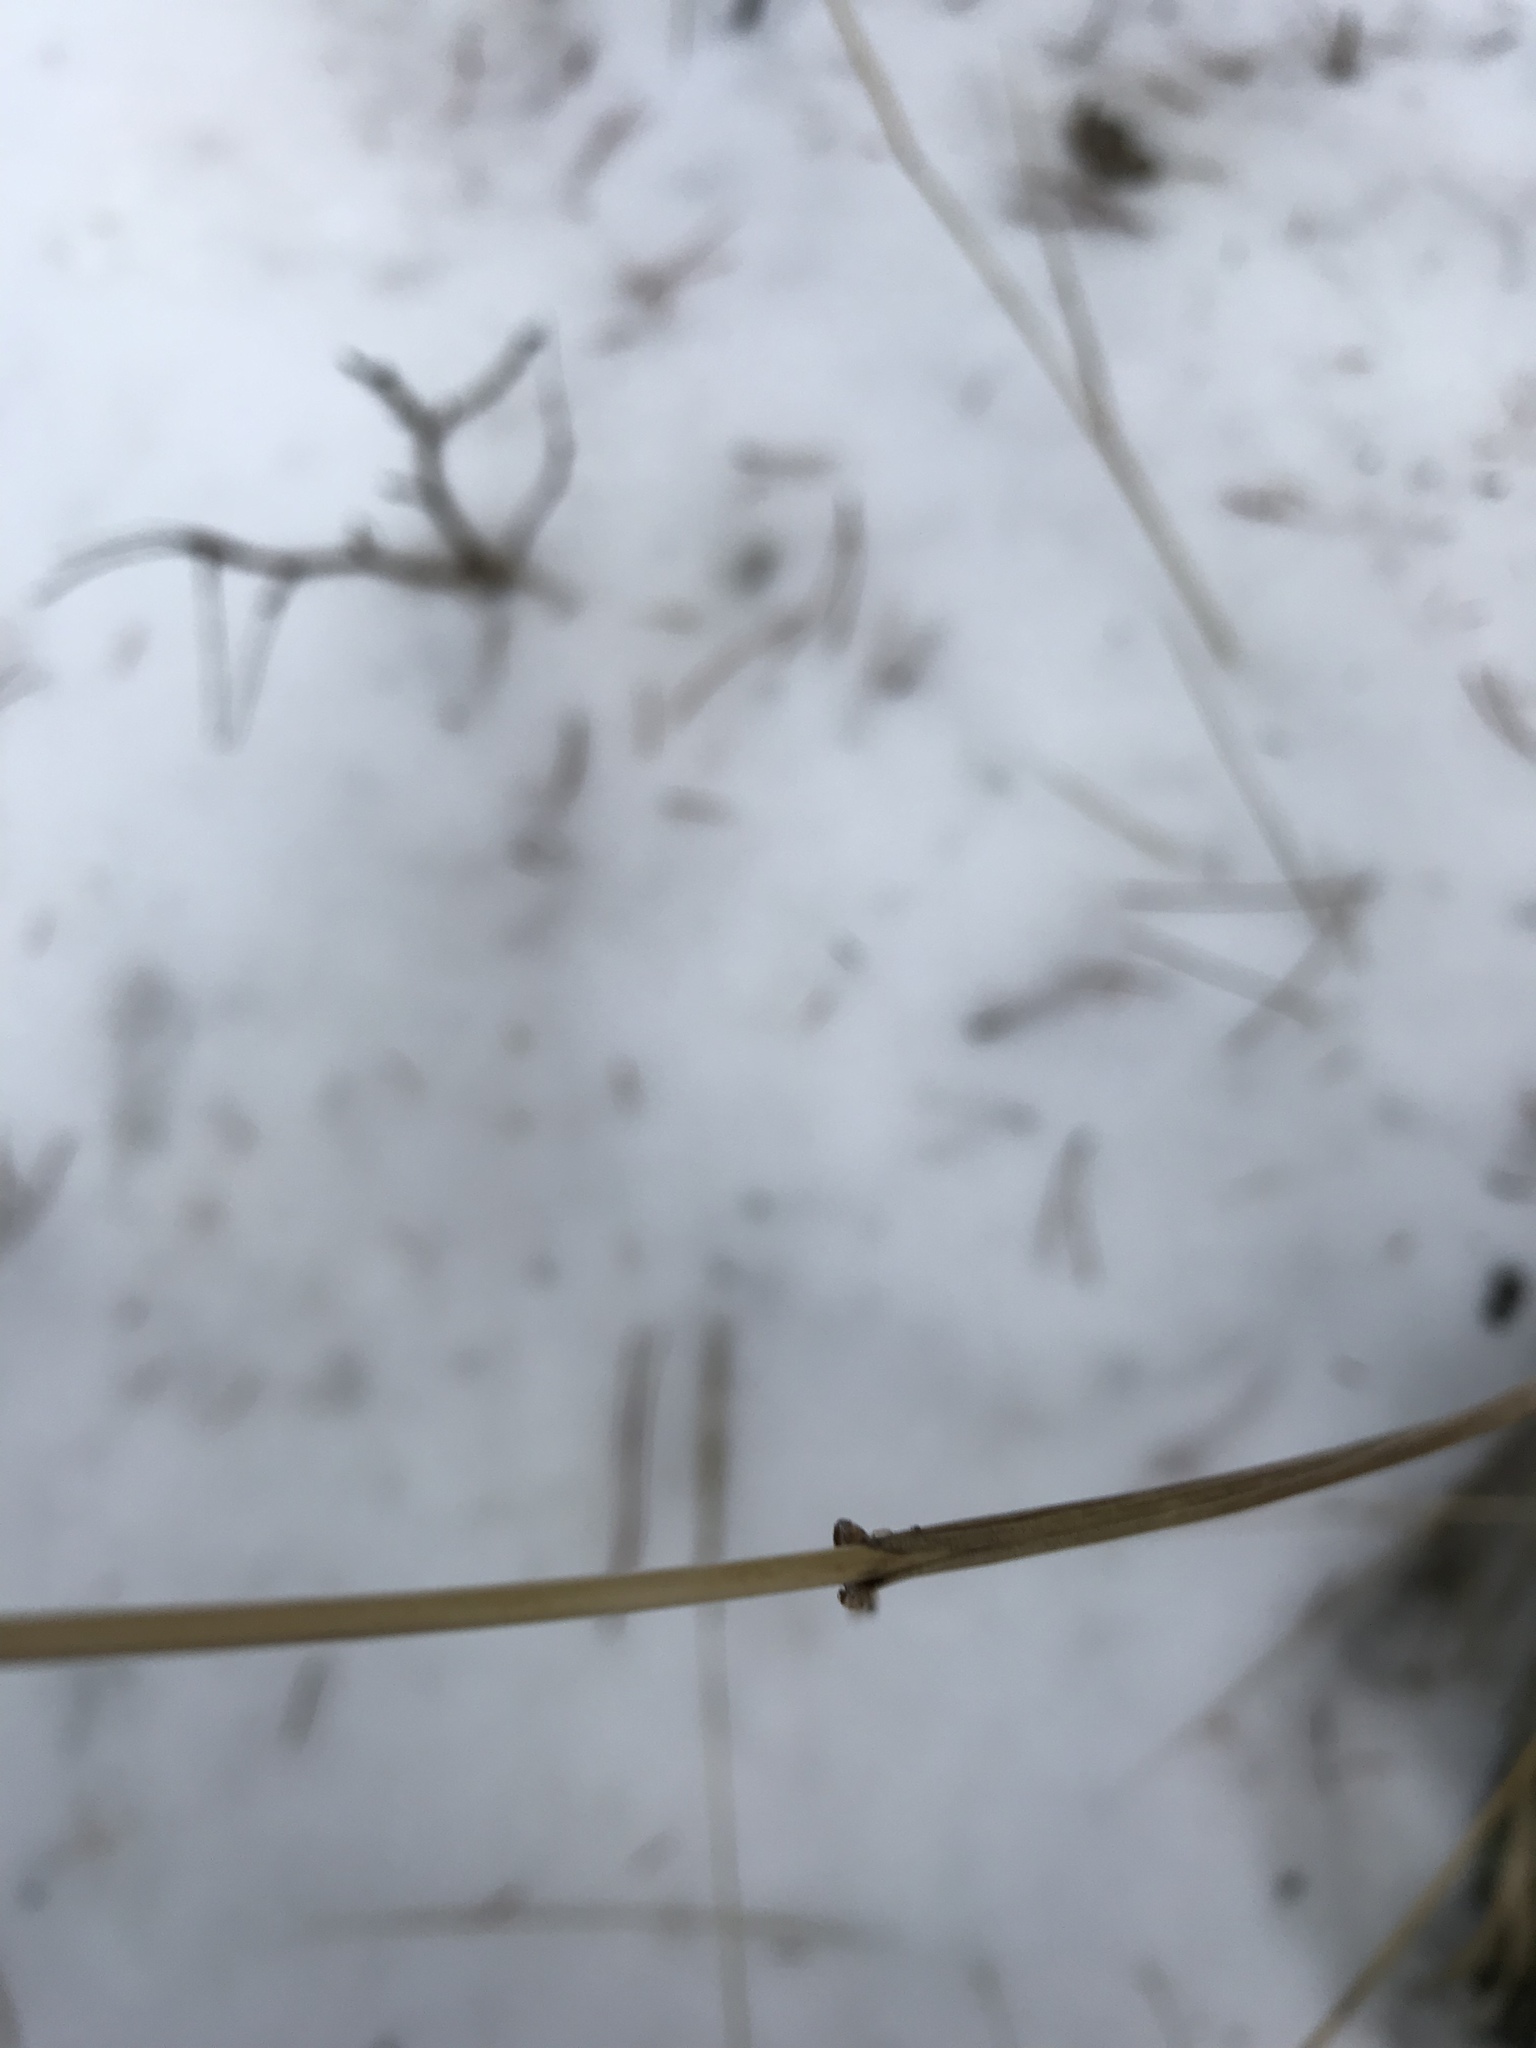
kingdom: Plantae
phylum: Tracheophyta
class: Liliopsida
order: Poales
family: Poaceae
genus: Leymus
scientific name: Leymus innovatus
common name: Boreal wild rye
